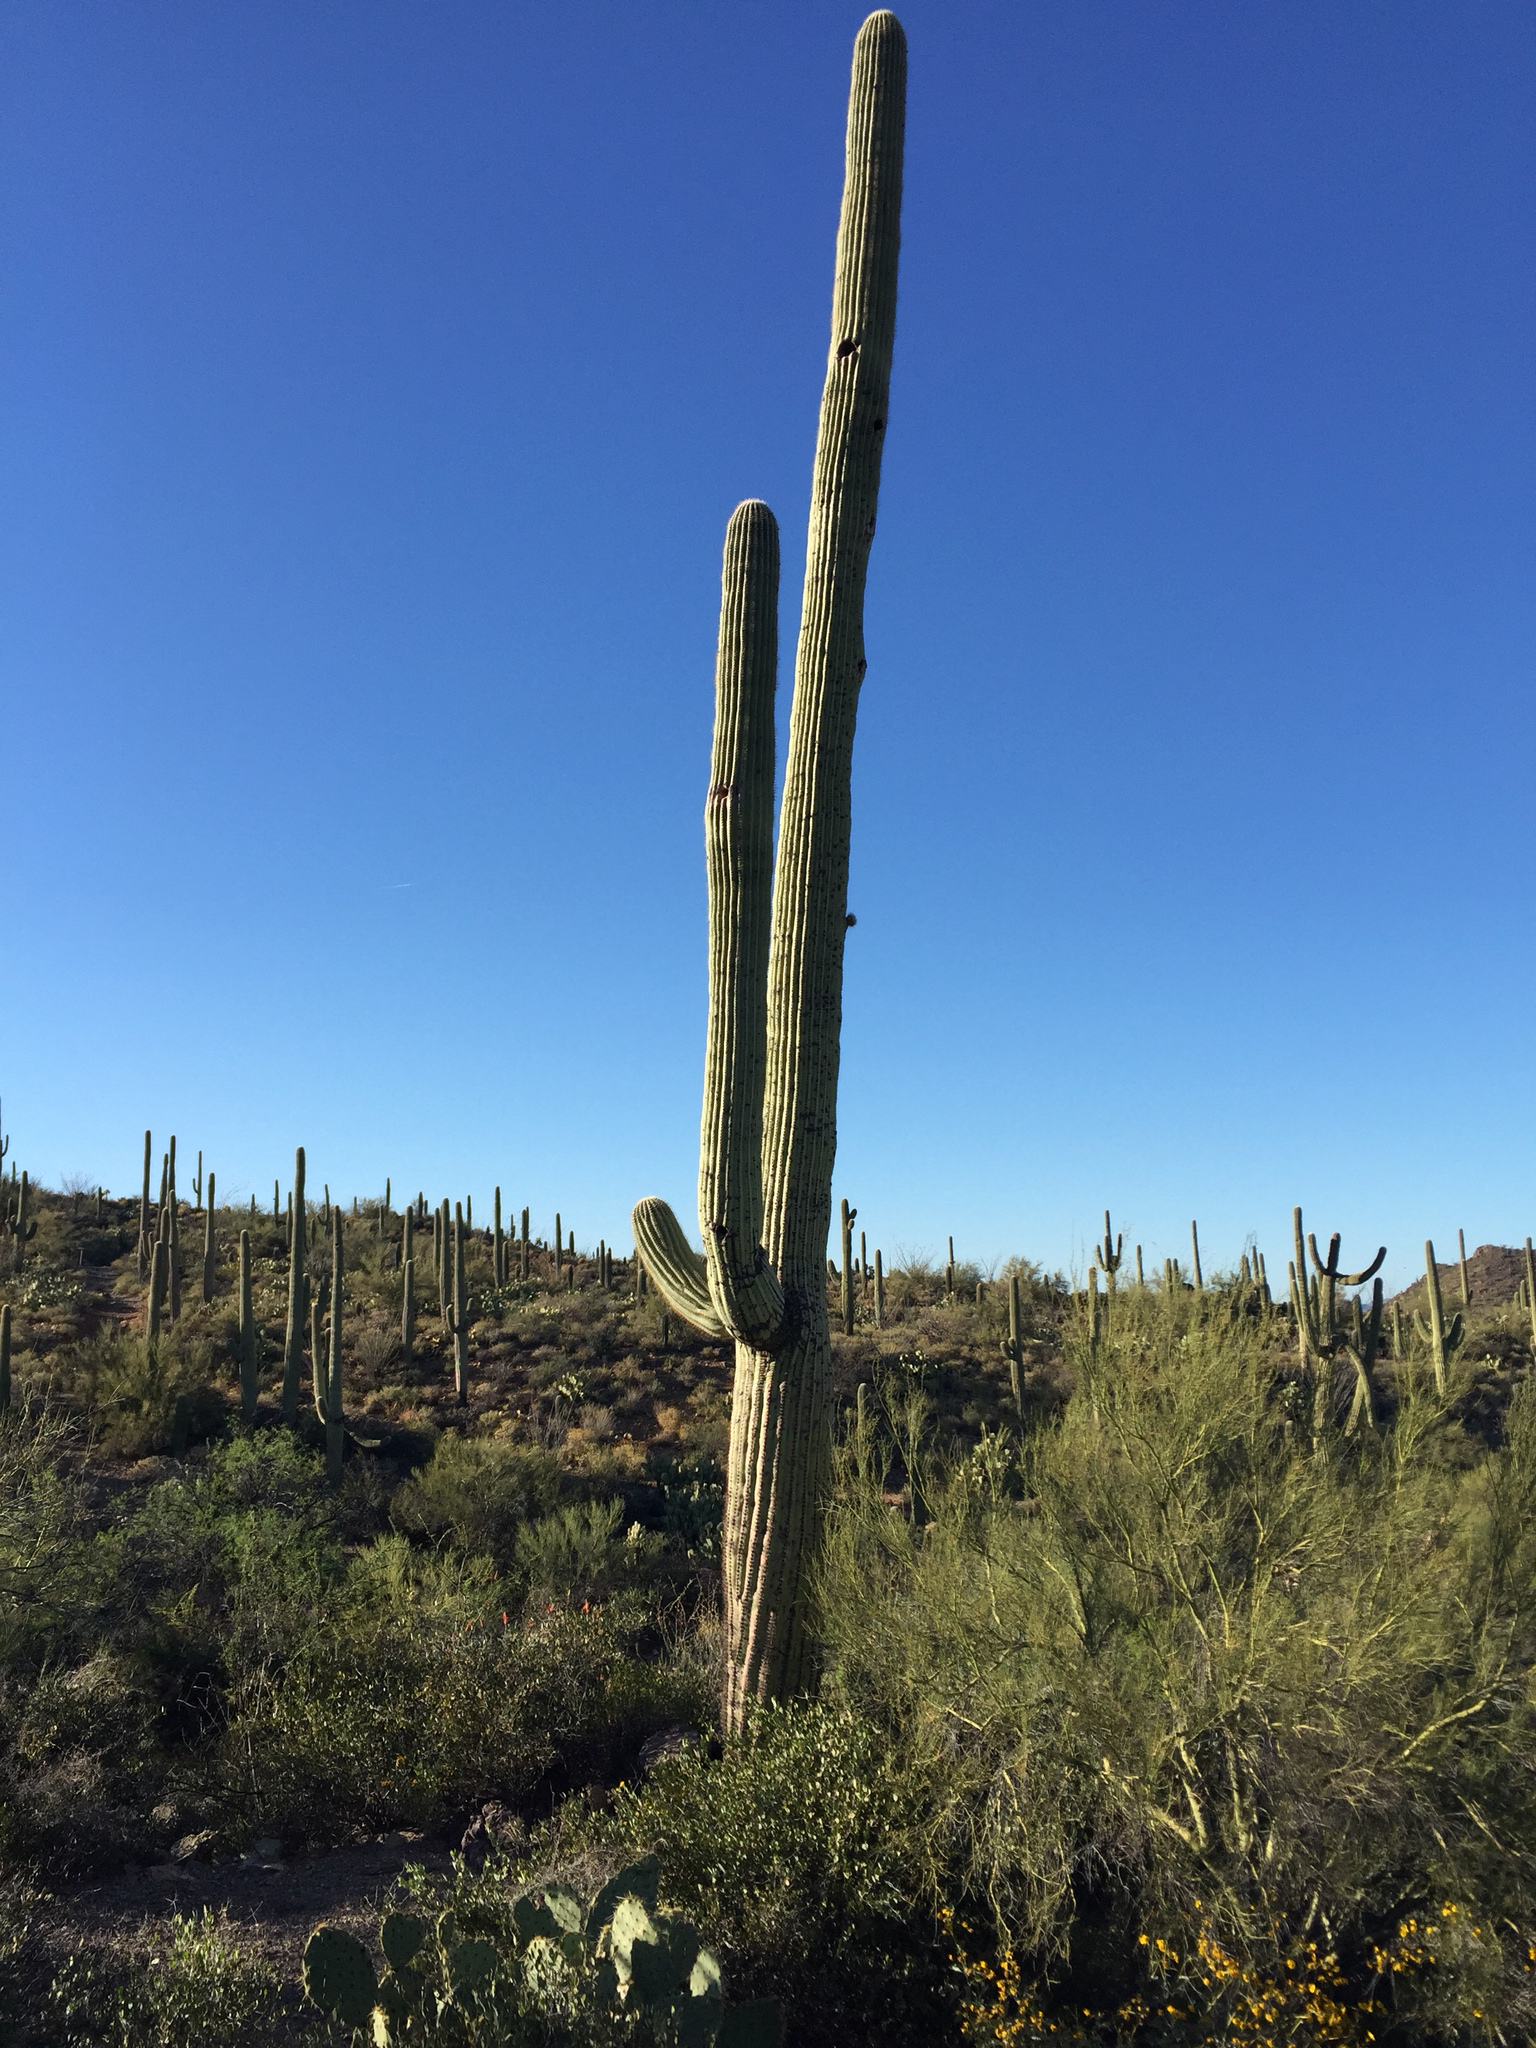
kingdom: Plantae
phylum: Tracheophyta
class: Magnoliopsida
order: Caryophyllales
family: Cactaceae
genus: Carnegiea
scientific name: Carnegiea gigantea
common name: Saguaro
